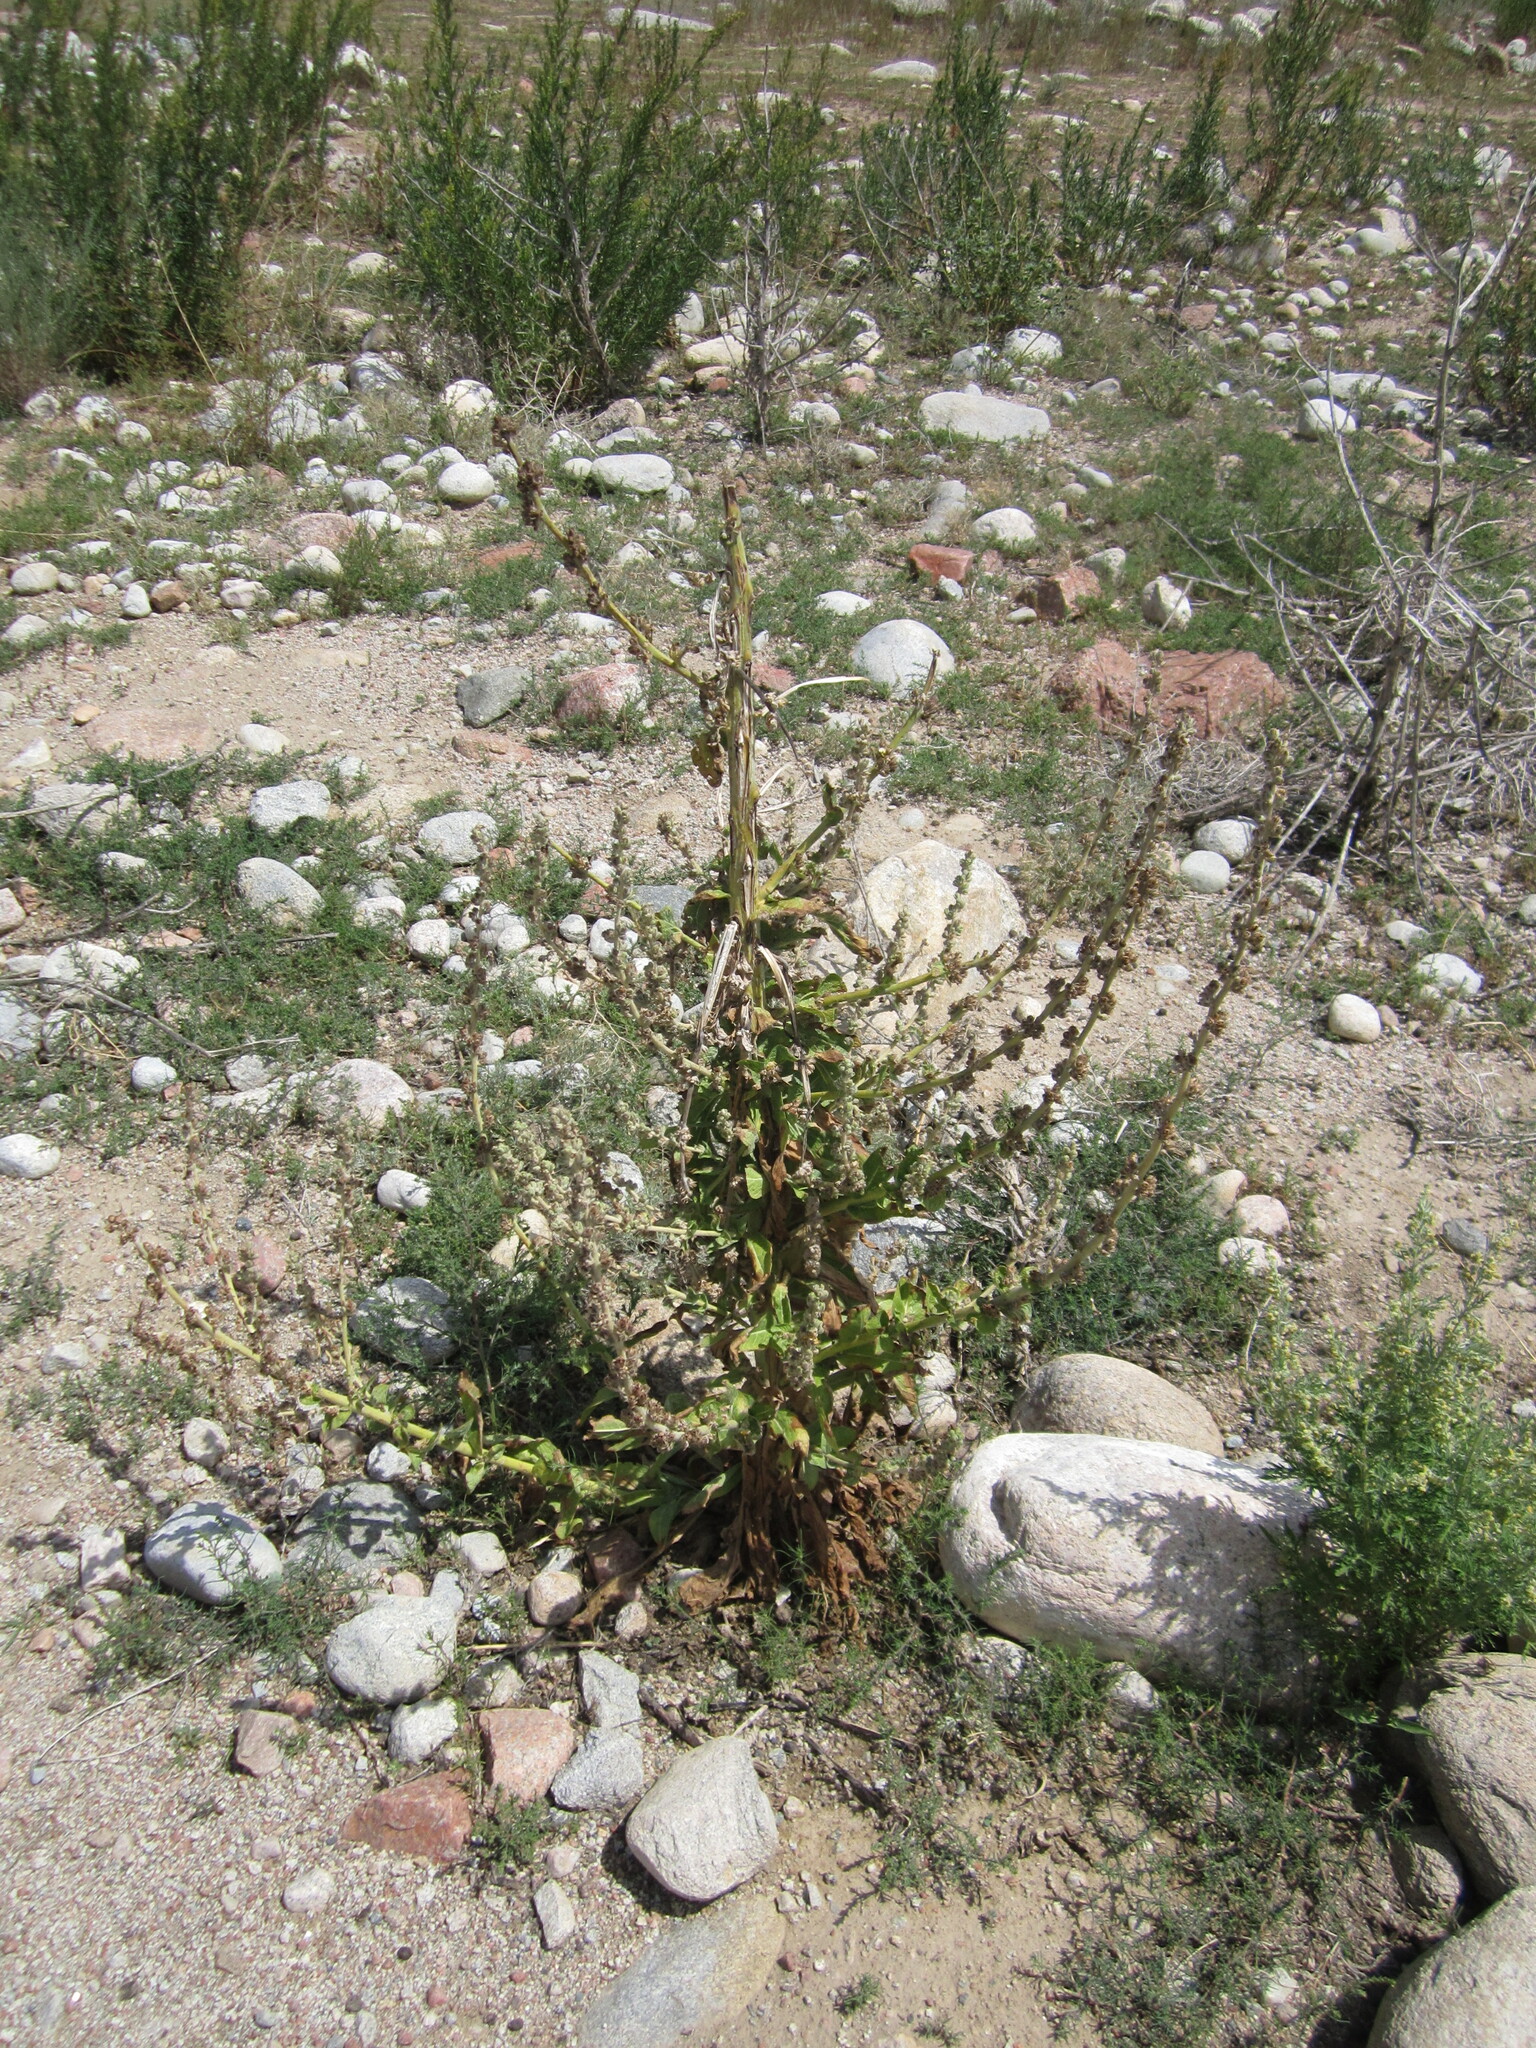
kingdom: Plantae
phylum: Tracheophyta
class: Magnoliopsida
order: Lamiales
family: Scrophulariaceae
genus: Verbascum
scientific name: Verbascum songaricum
